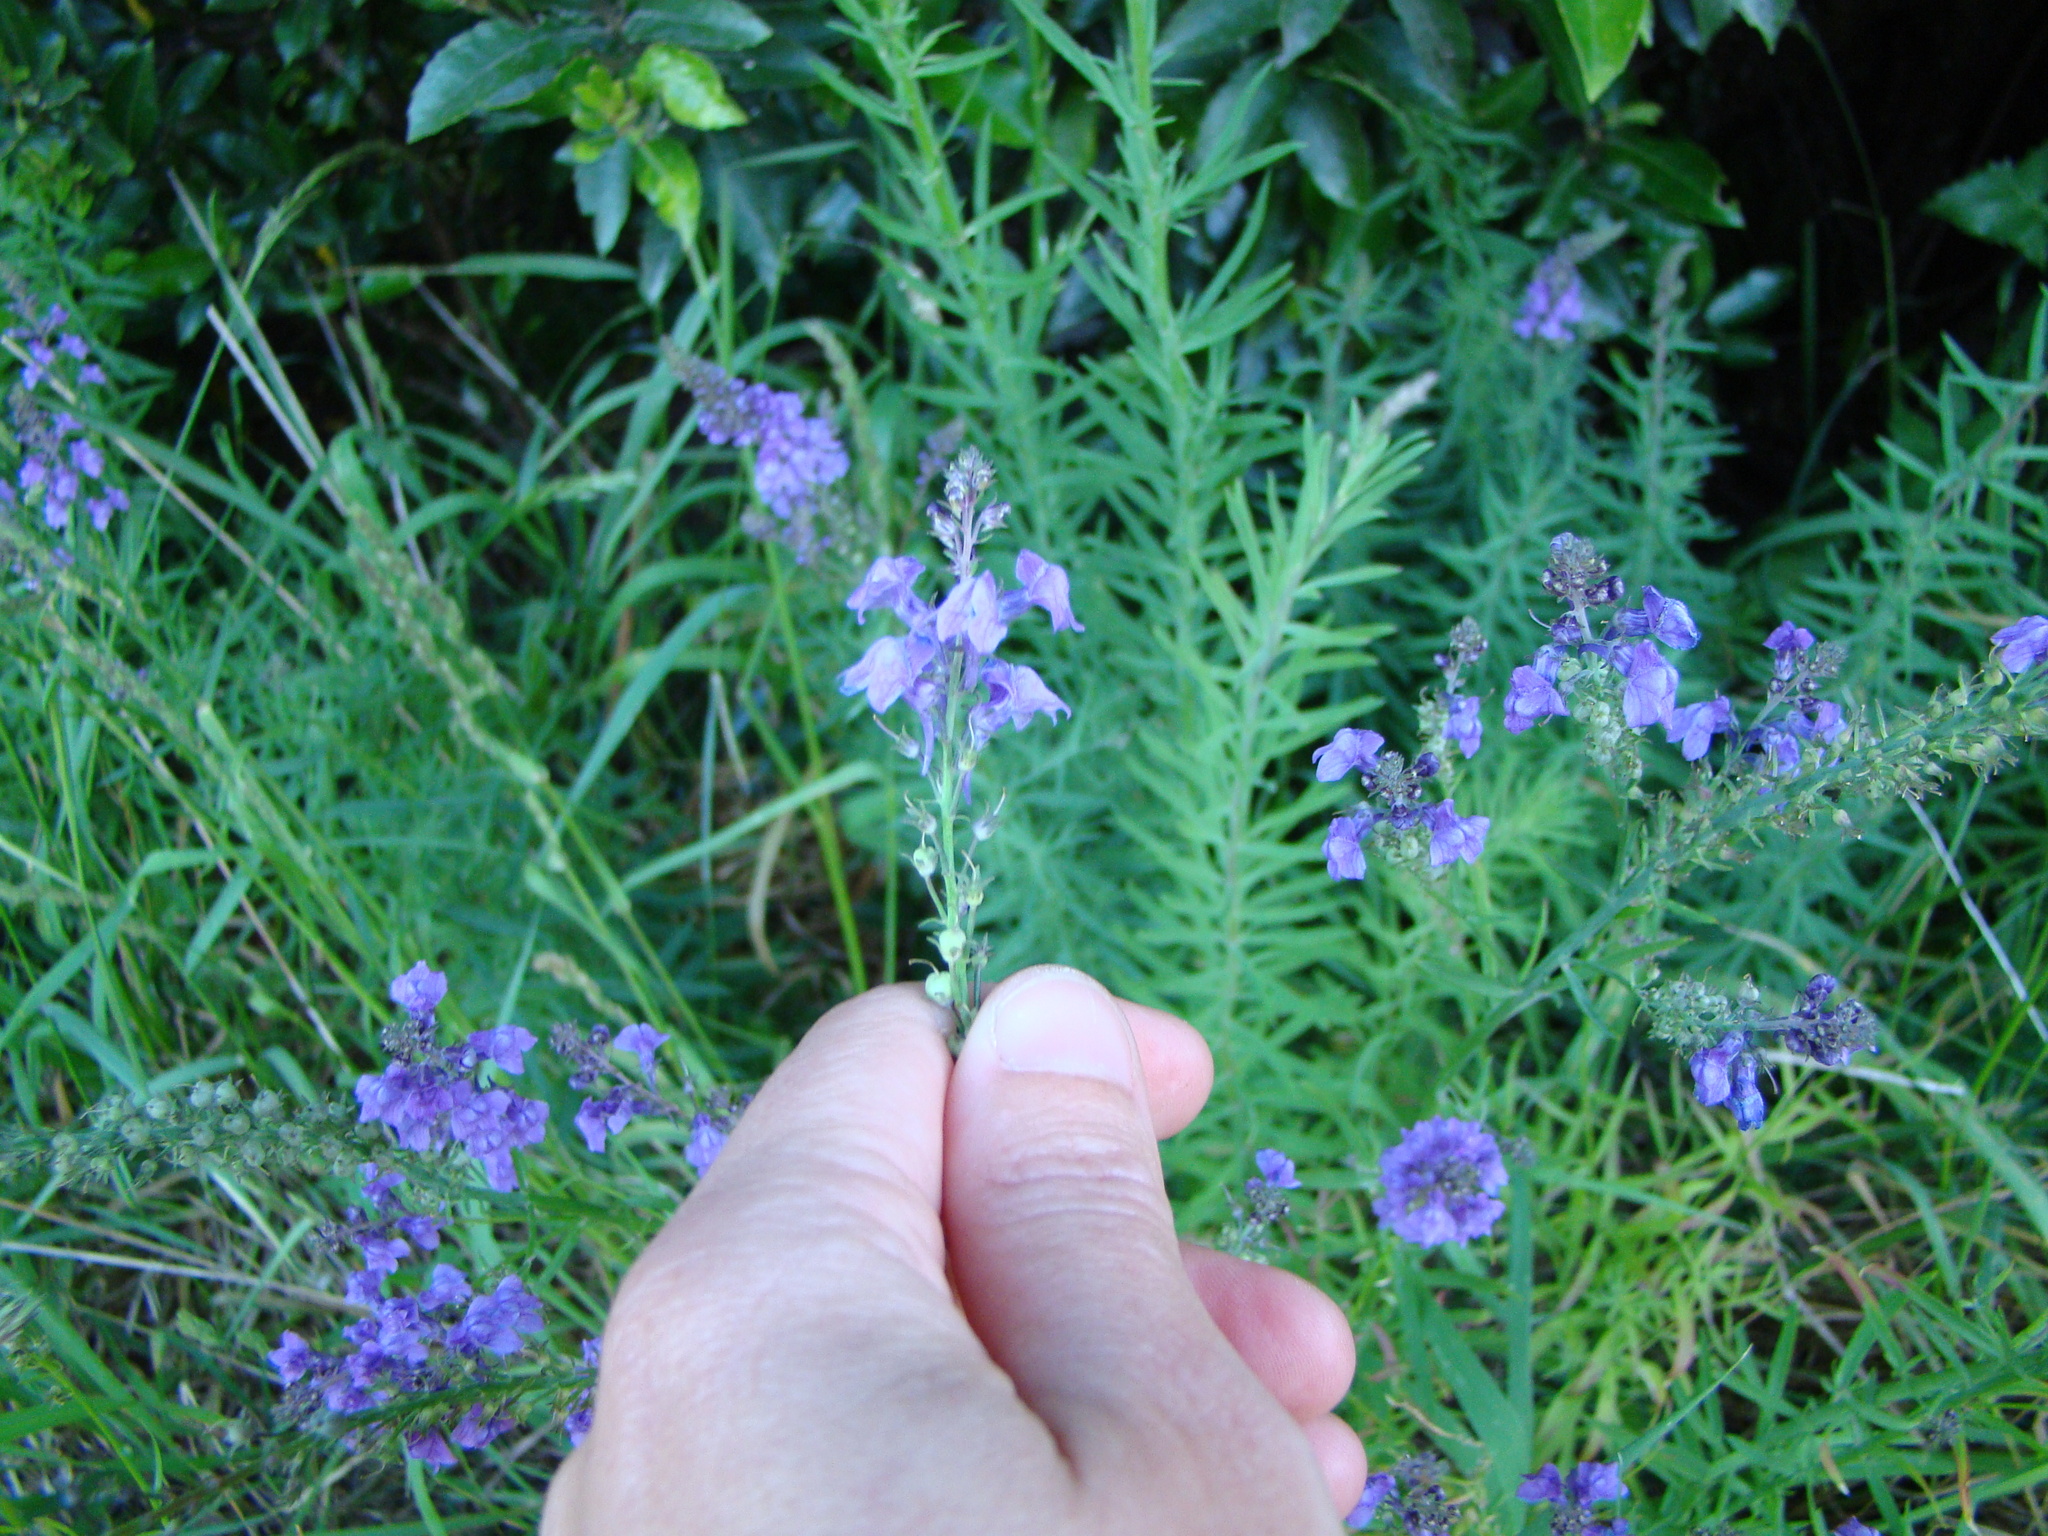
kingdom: Plantae
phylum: Tracheophyta
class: Magnoliopsida
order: Lamiales
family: Plantaginaceae
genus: Linaria
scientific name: Linaria purpurea
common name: Purple toadflax
